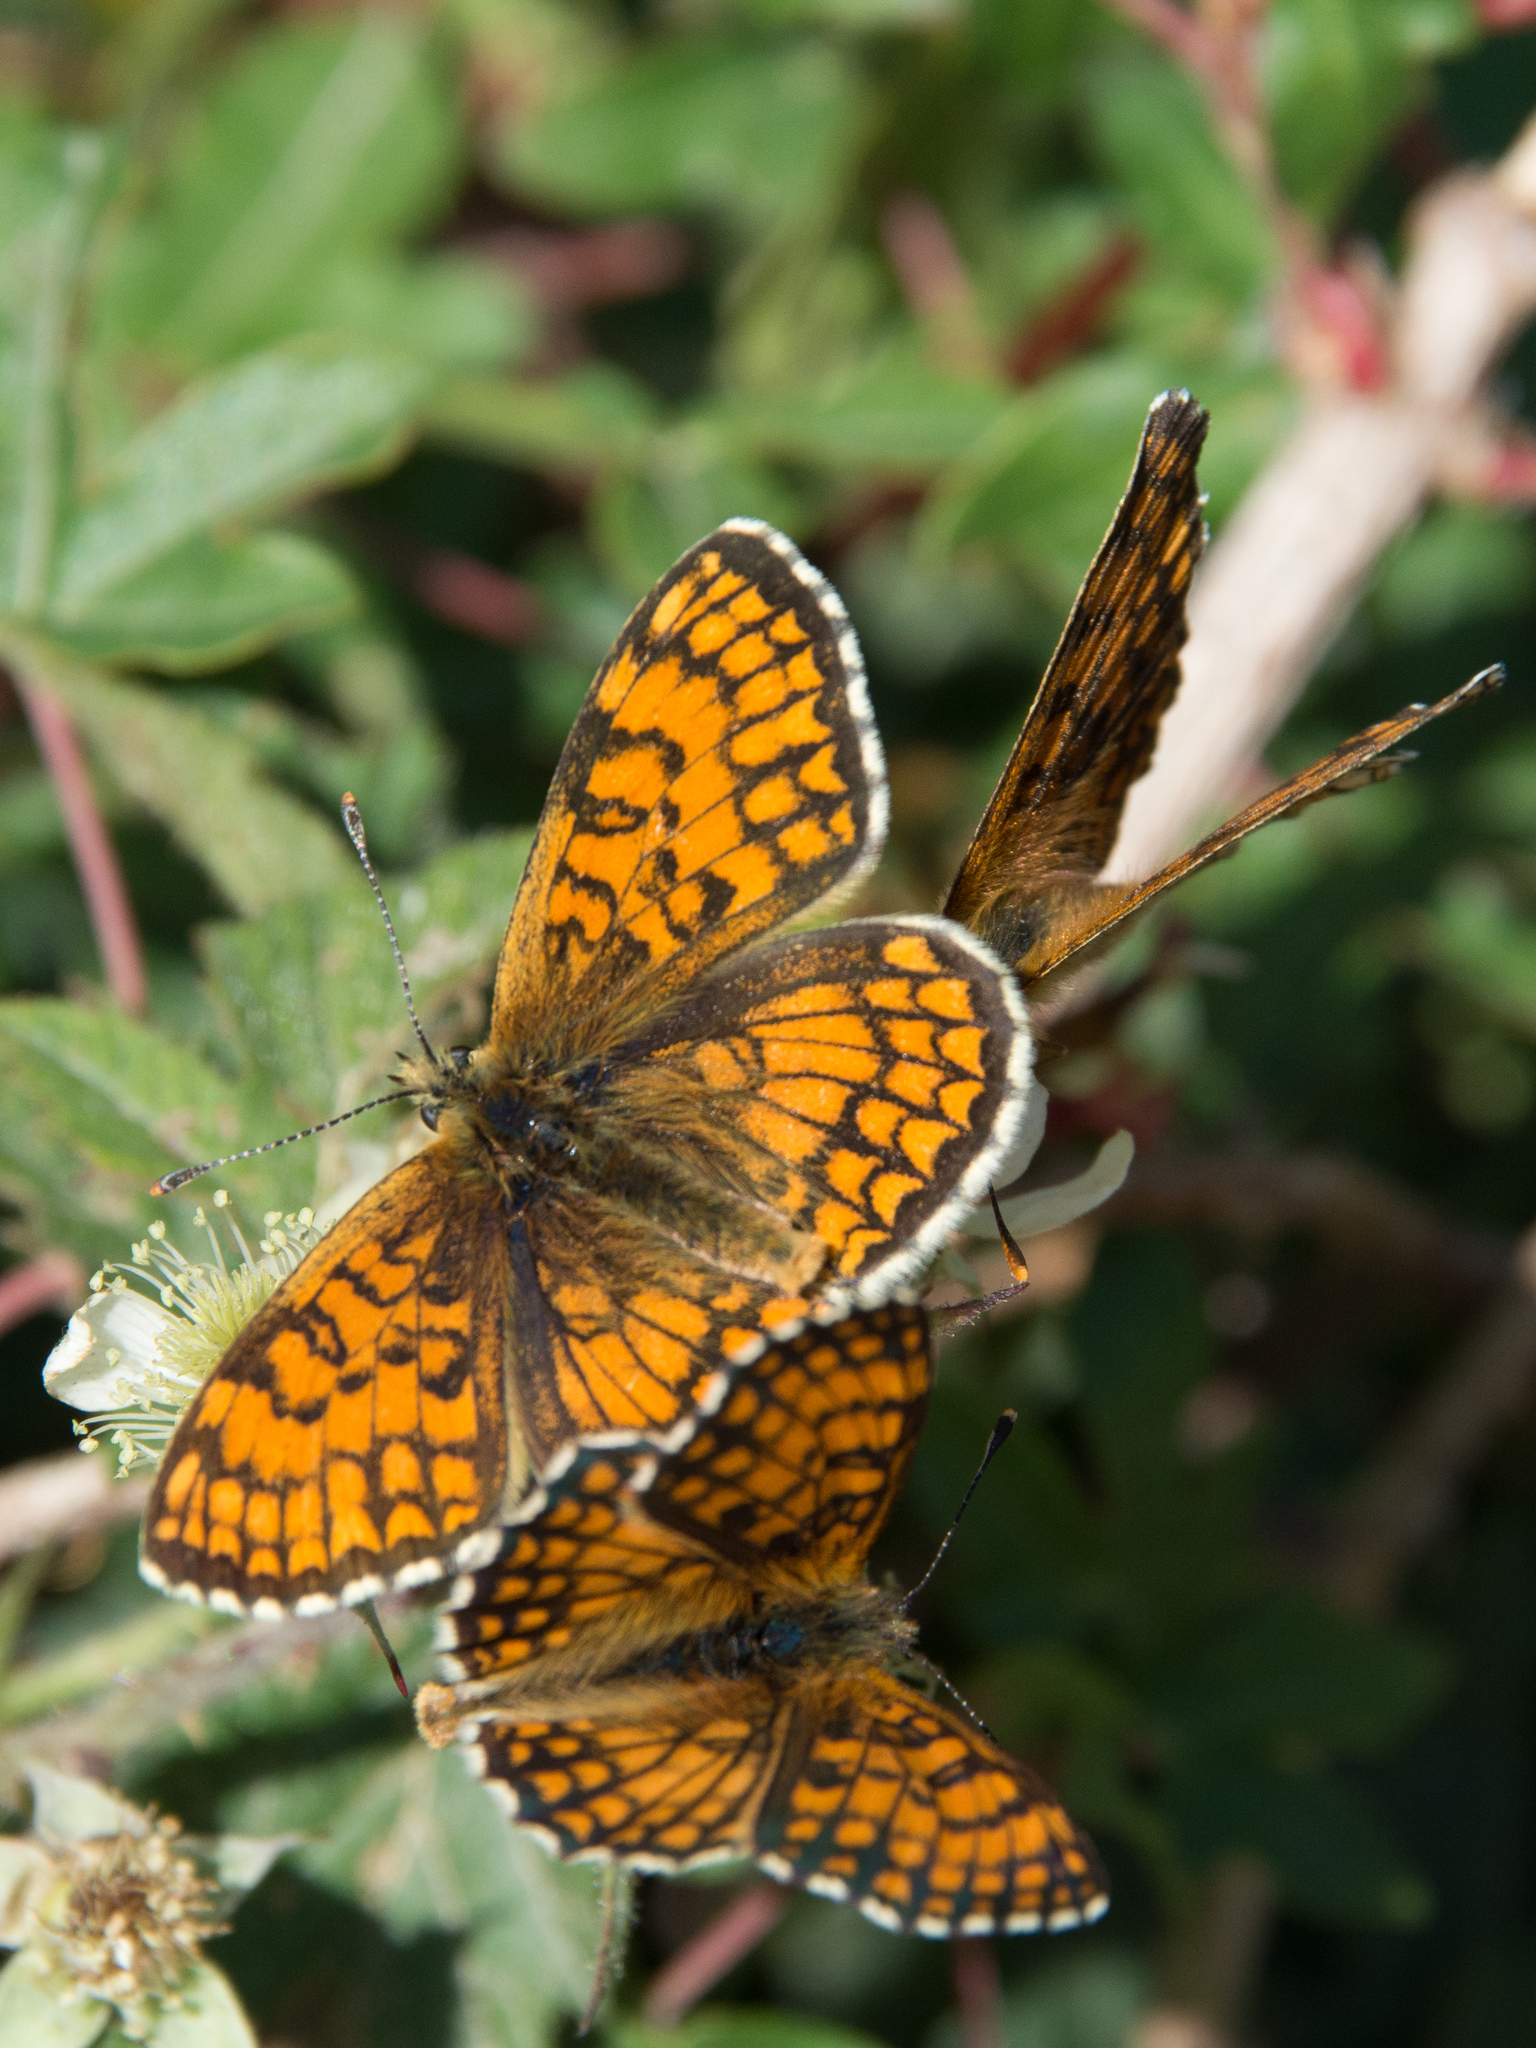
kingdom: Animalia
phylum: Arthropoda
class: Insecta
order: Lepidoptera
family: Nymphalidae
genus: Mellicta
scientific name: Mellicta athalia
